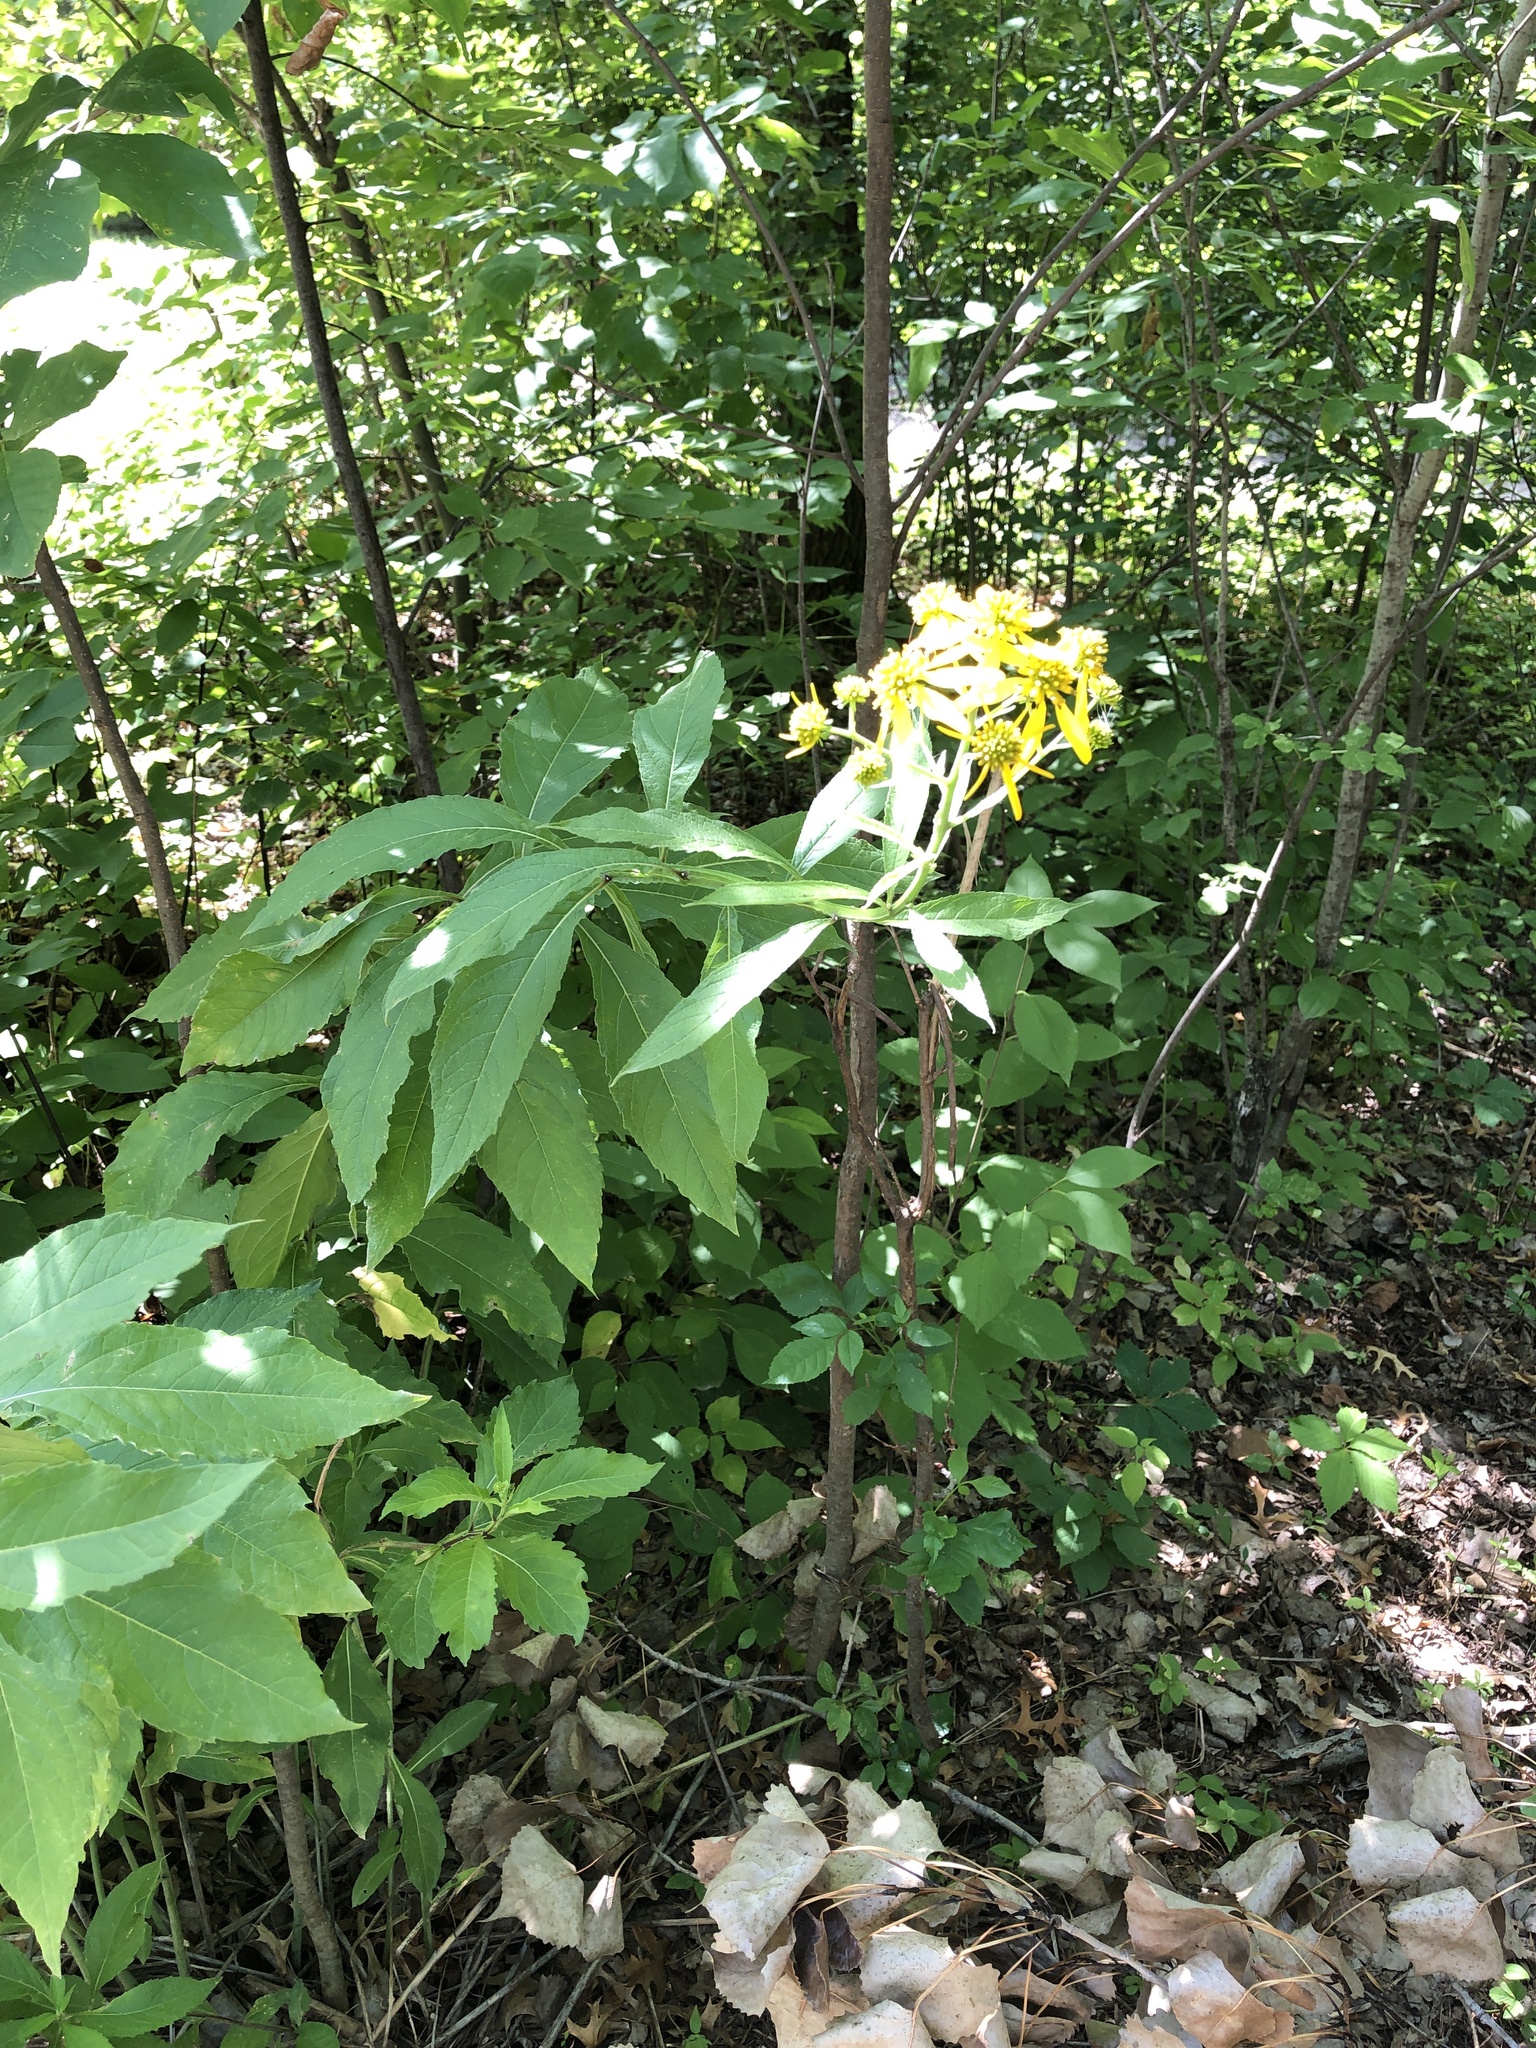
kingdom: Plantae
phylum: Tracheophyta
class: Magnoliopsida
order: Asterales
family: Asteraceae
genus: Verbesina
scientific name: Verbesina alternifolia
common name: Wingstem
